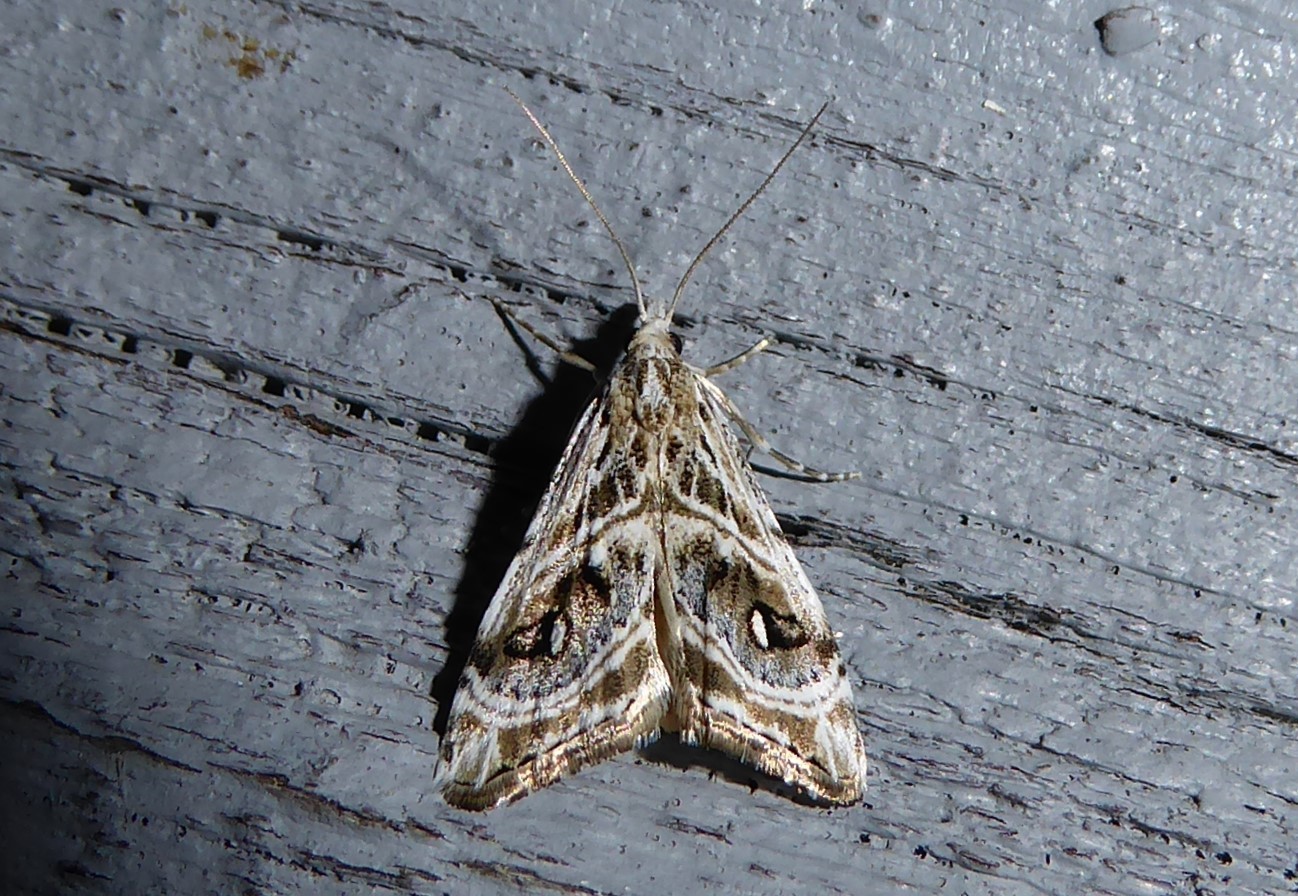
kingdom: Animalia
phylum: Arthropoda
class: Insecta
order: Lepidoptera
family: Crambidae
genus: Gadira
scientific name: Gadira acerella
